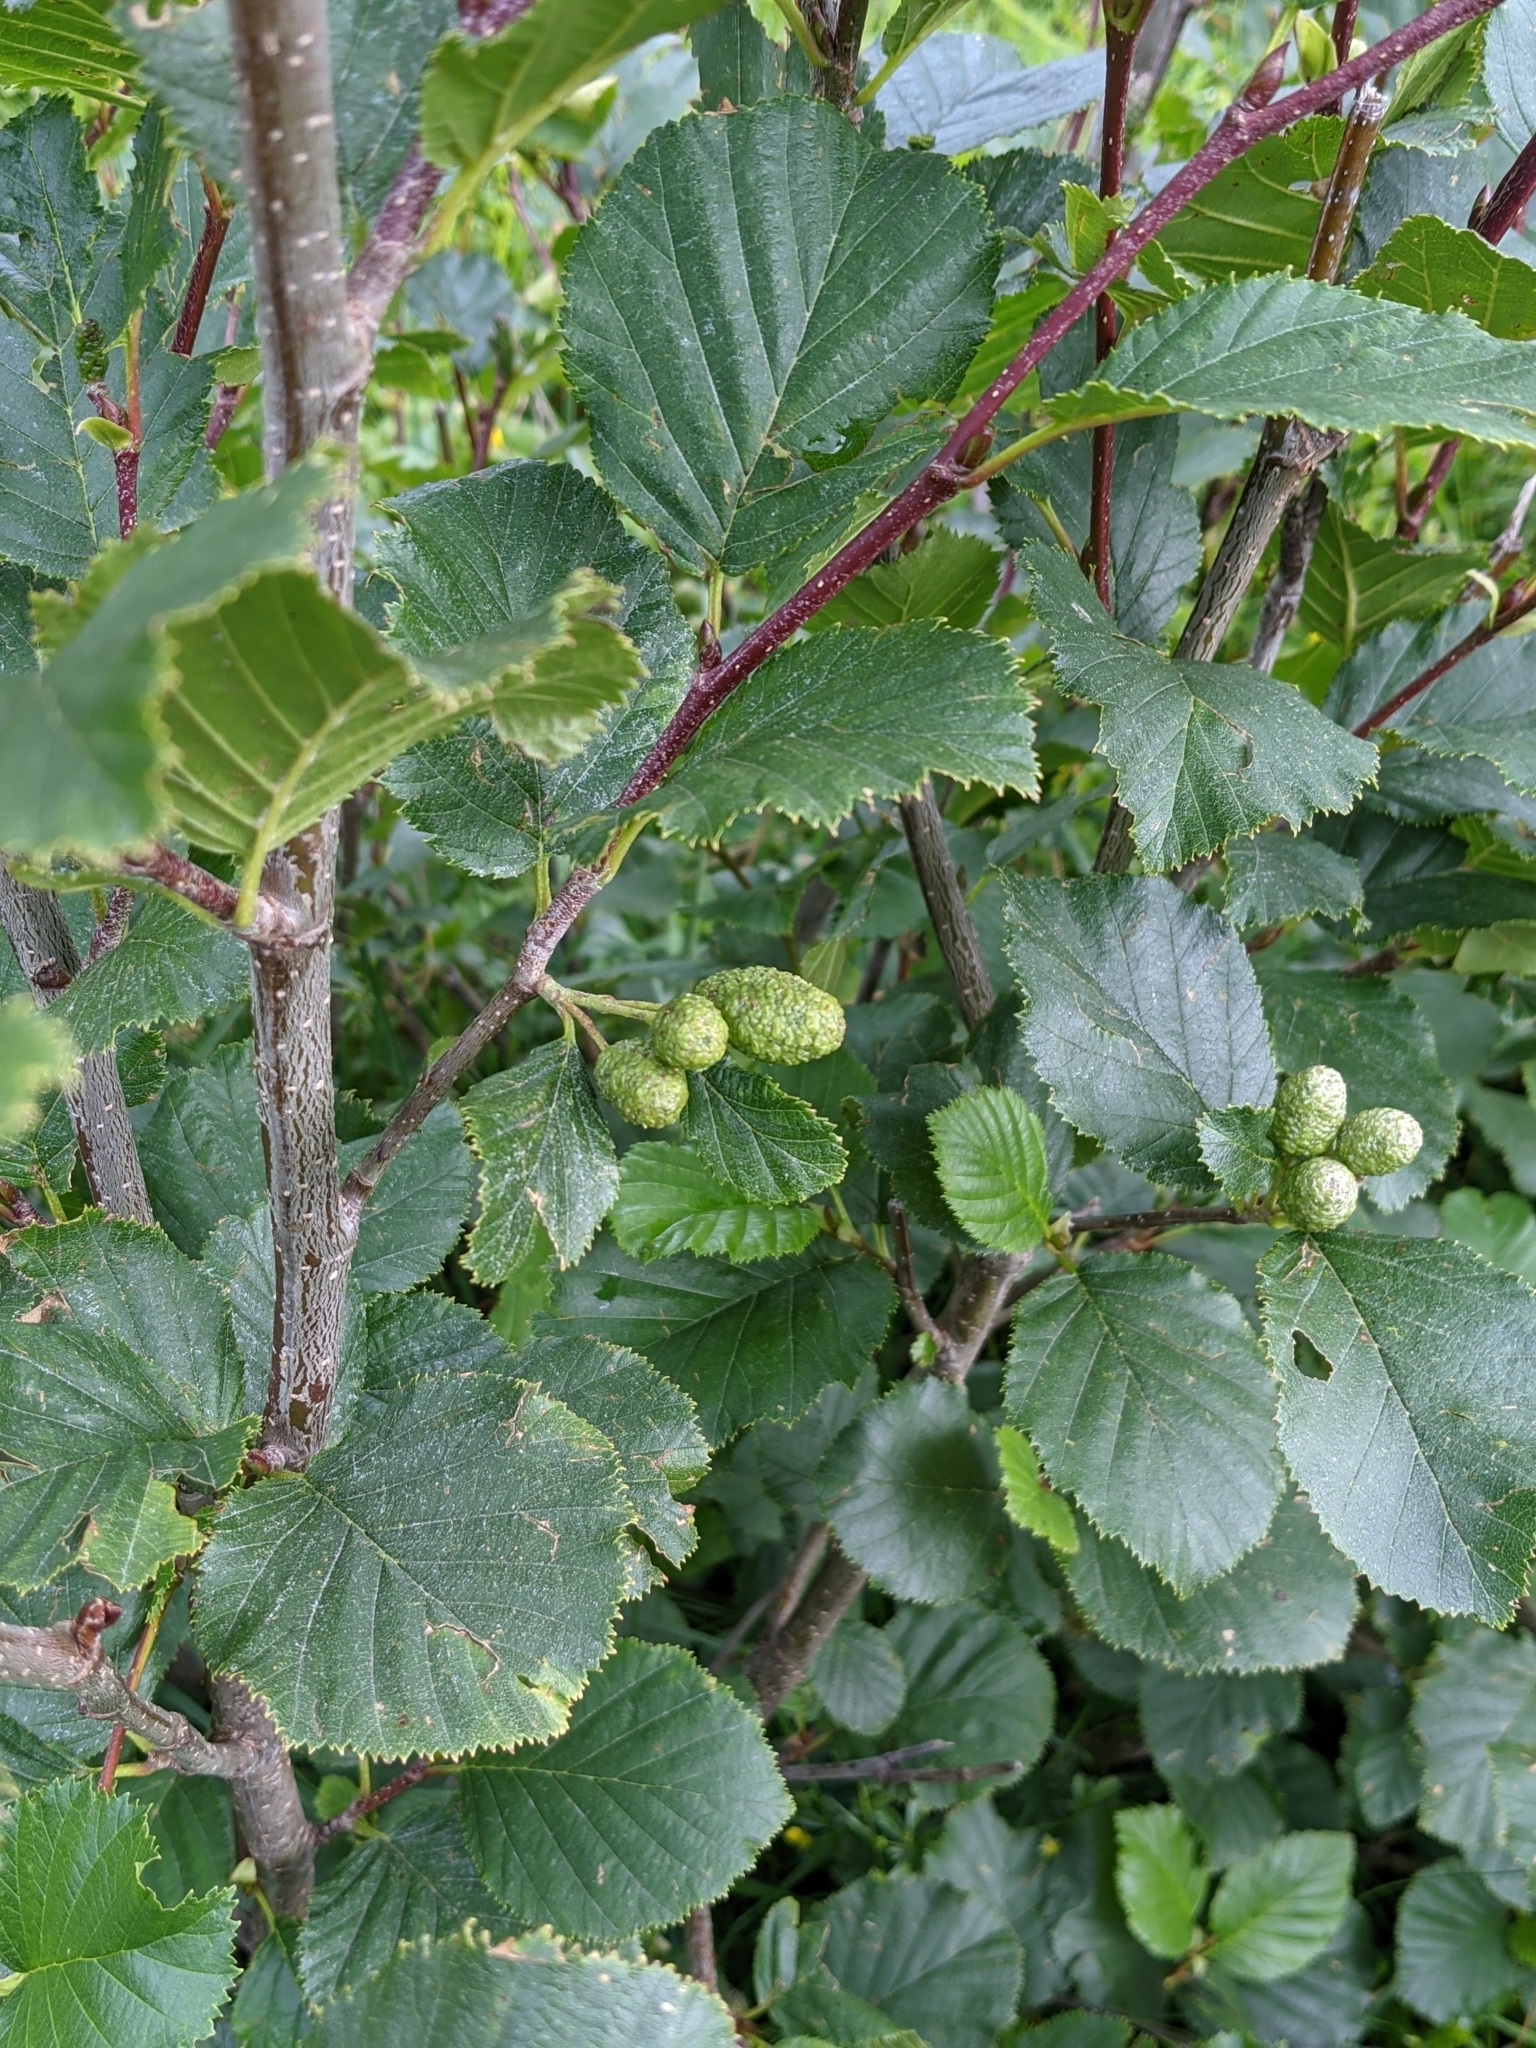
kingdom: Plantae
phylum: Tracheophyta
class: Magnoliopsida
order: Fagales
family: Betulaceae
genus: Alnus
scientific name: Alnus alnobetula
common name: Green alder
